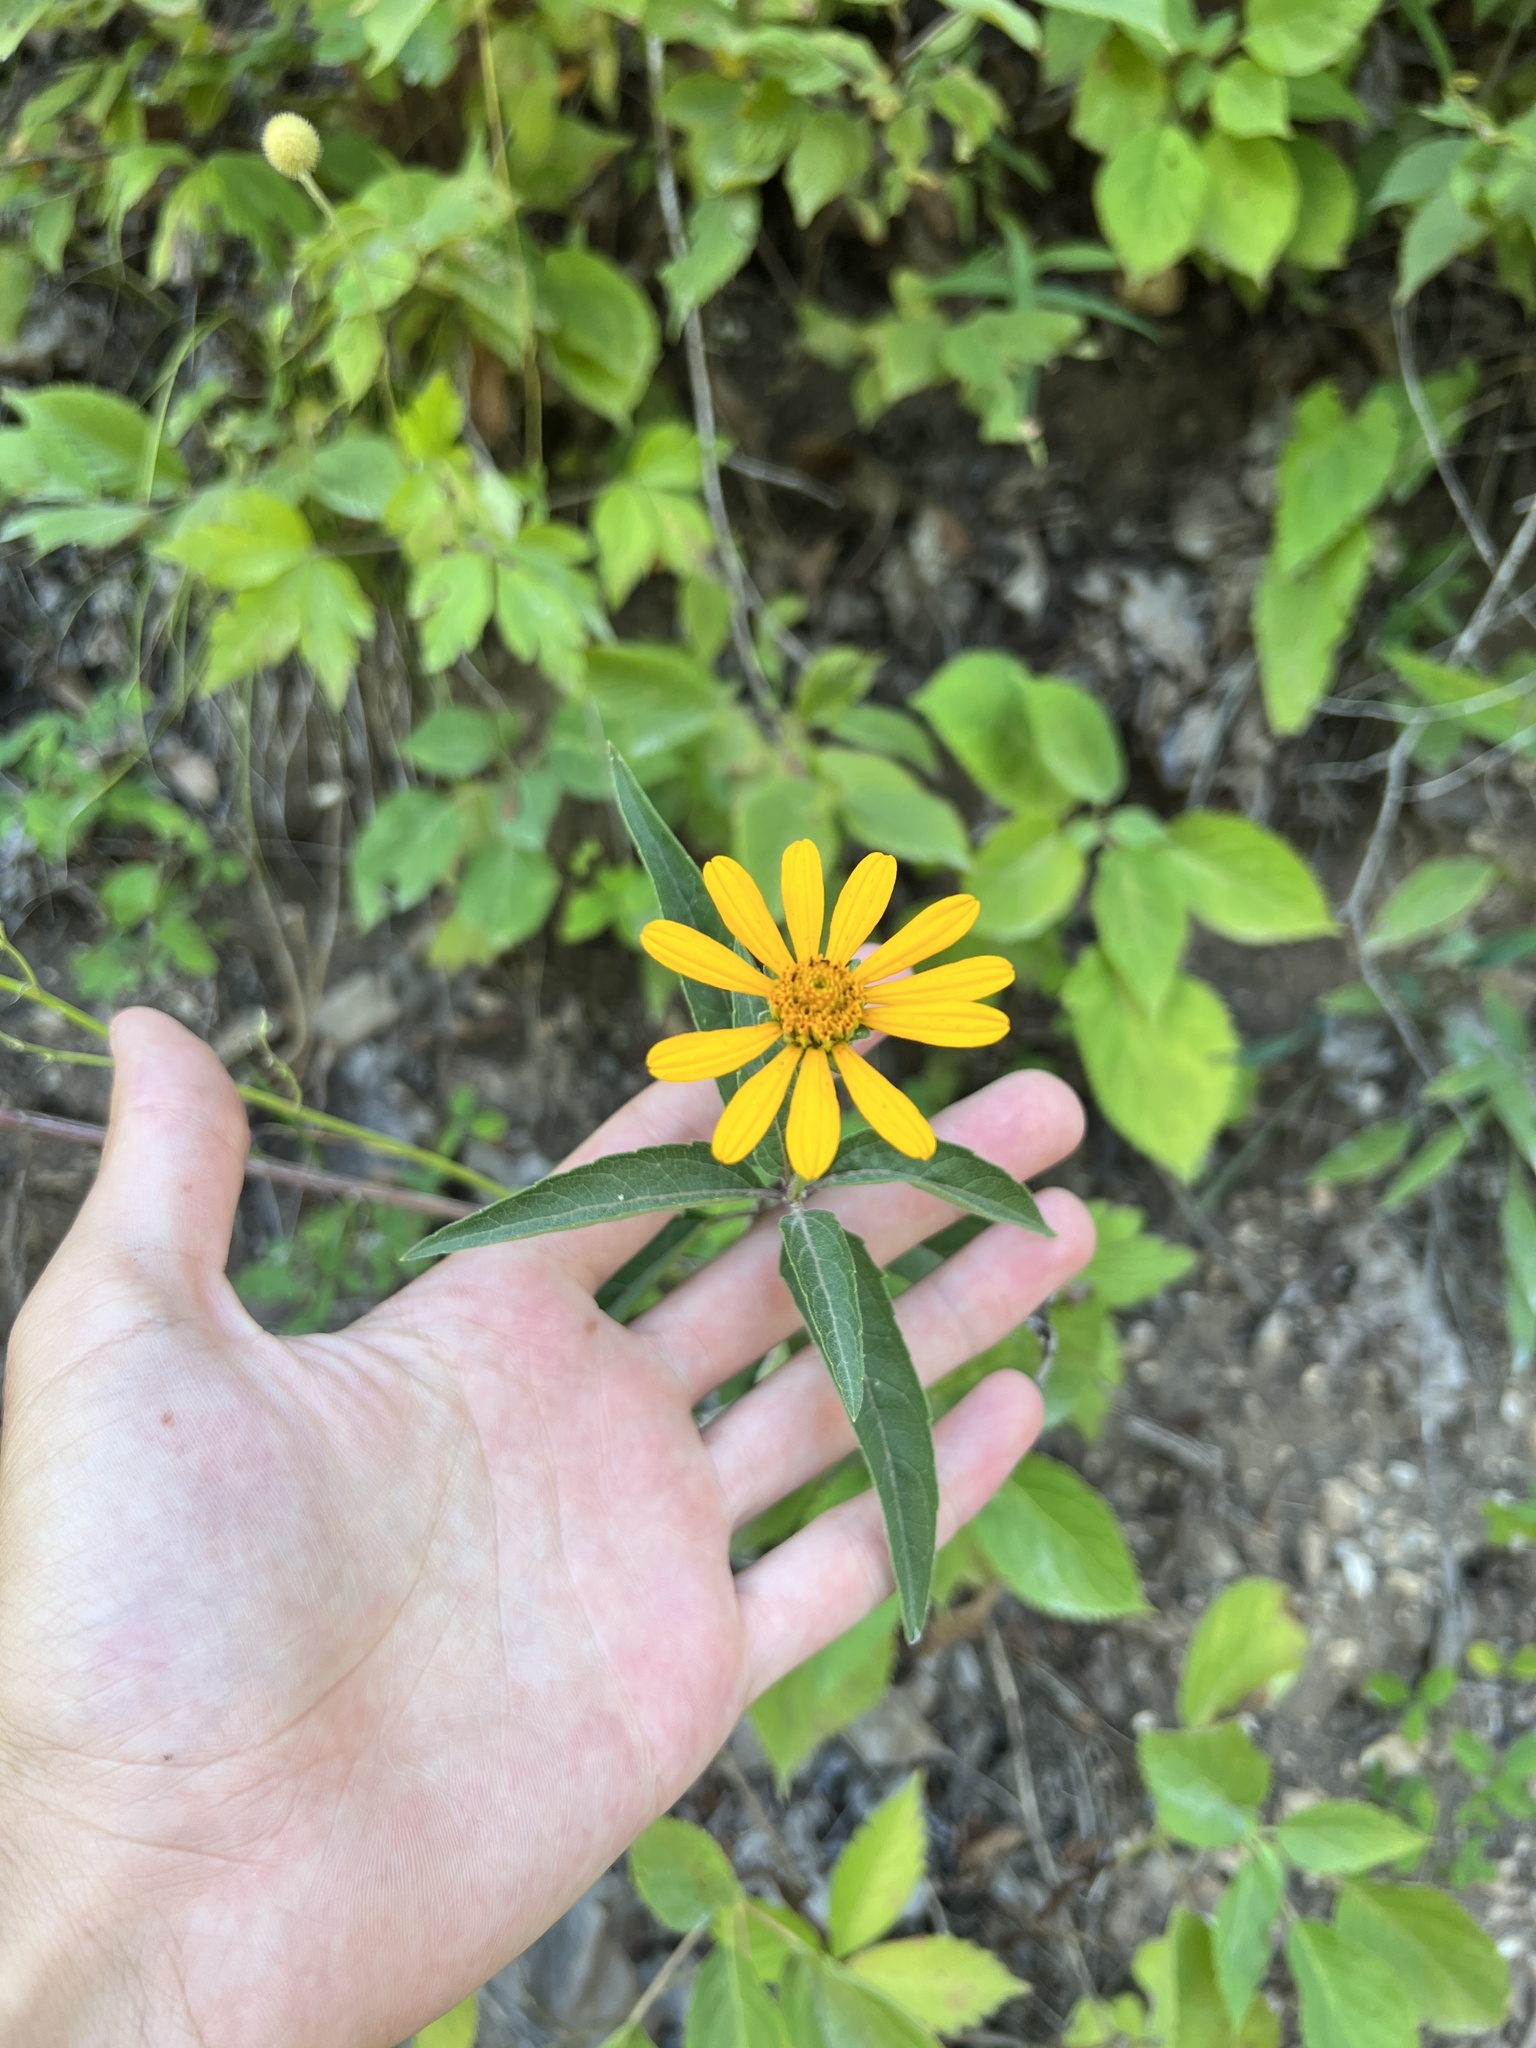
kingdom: Plantae
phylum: Tracheophyta
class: Magnoliopsida
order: Asterales
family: Asteraceae
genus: Heliopsis
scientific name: Heliopsis helianthoides
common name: False sunflower
